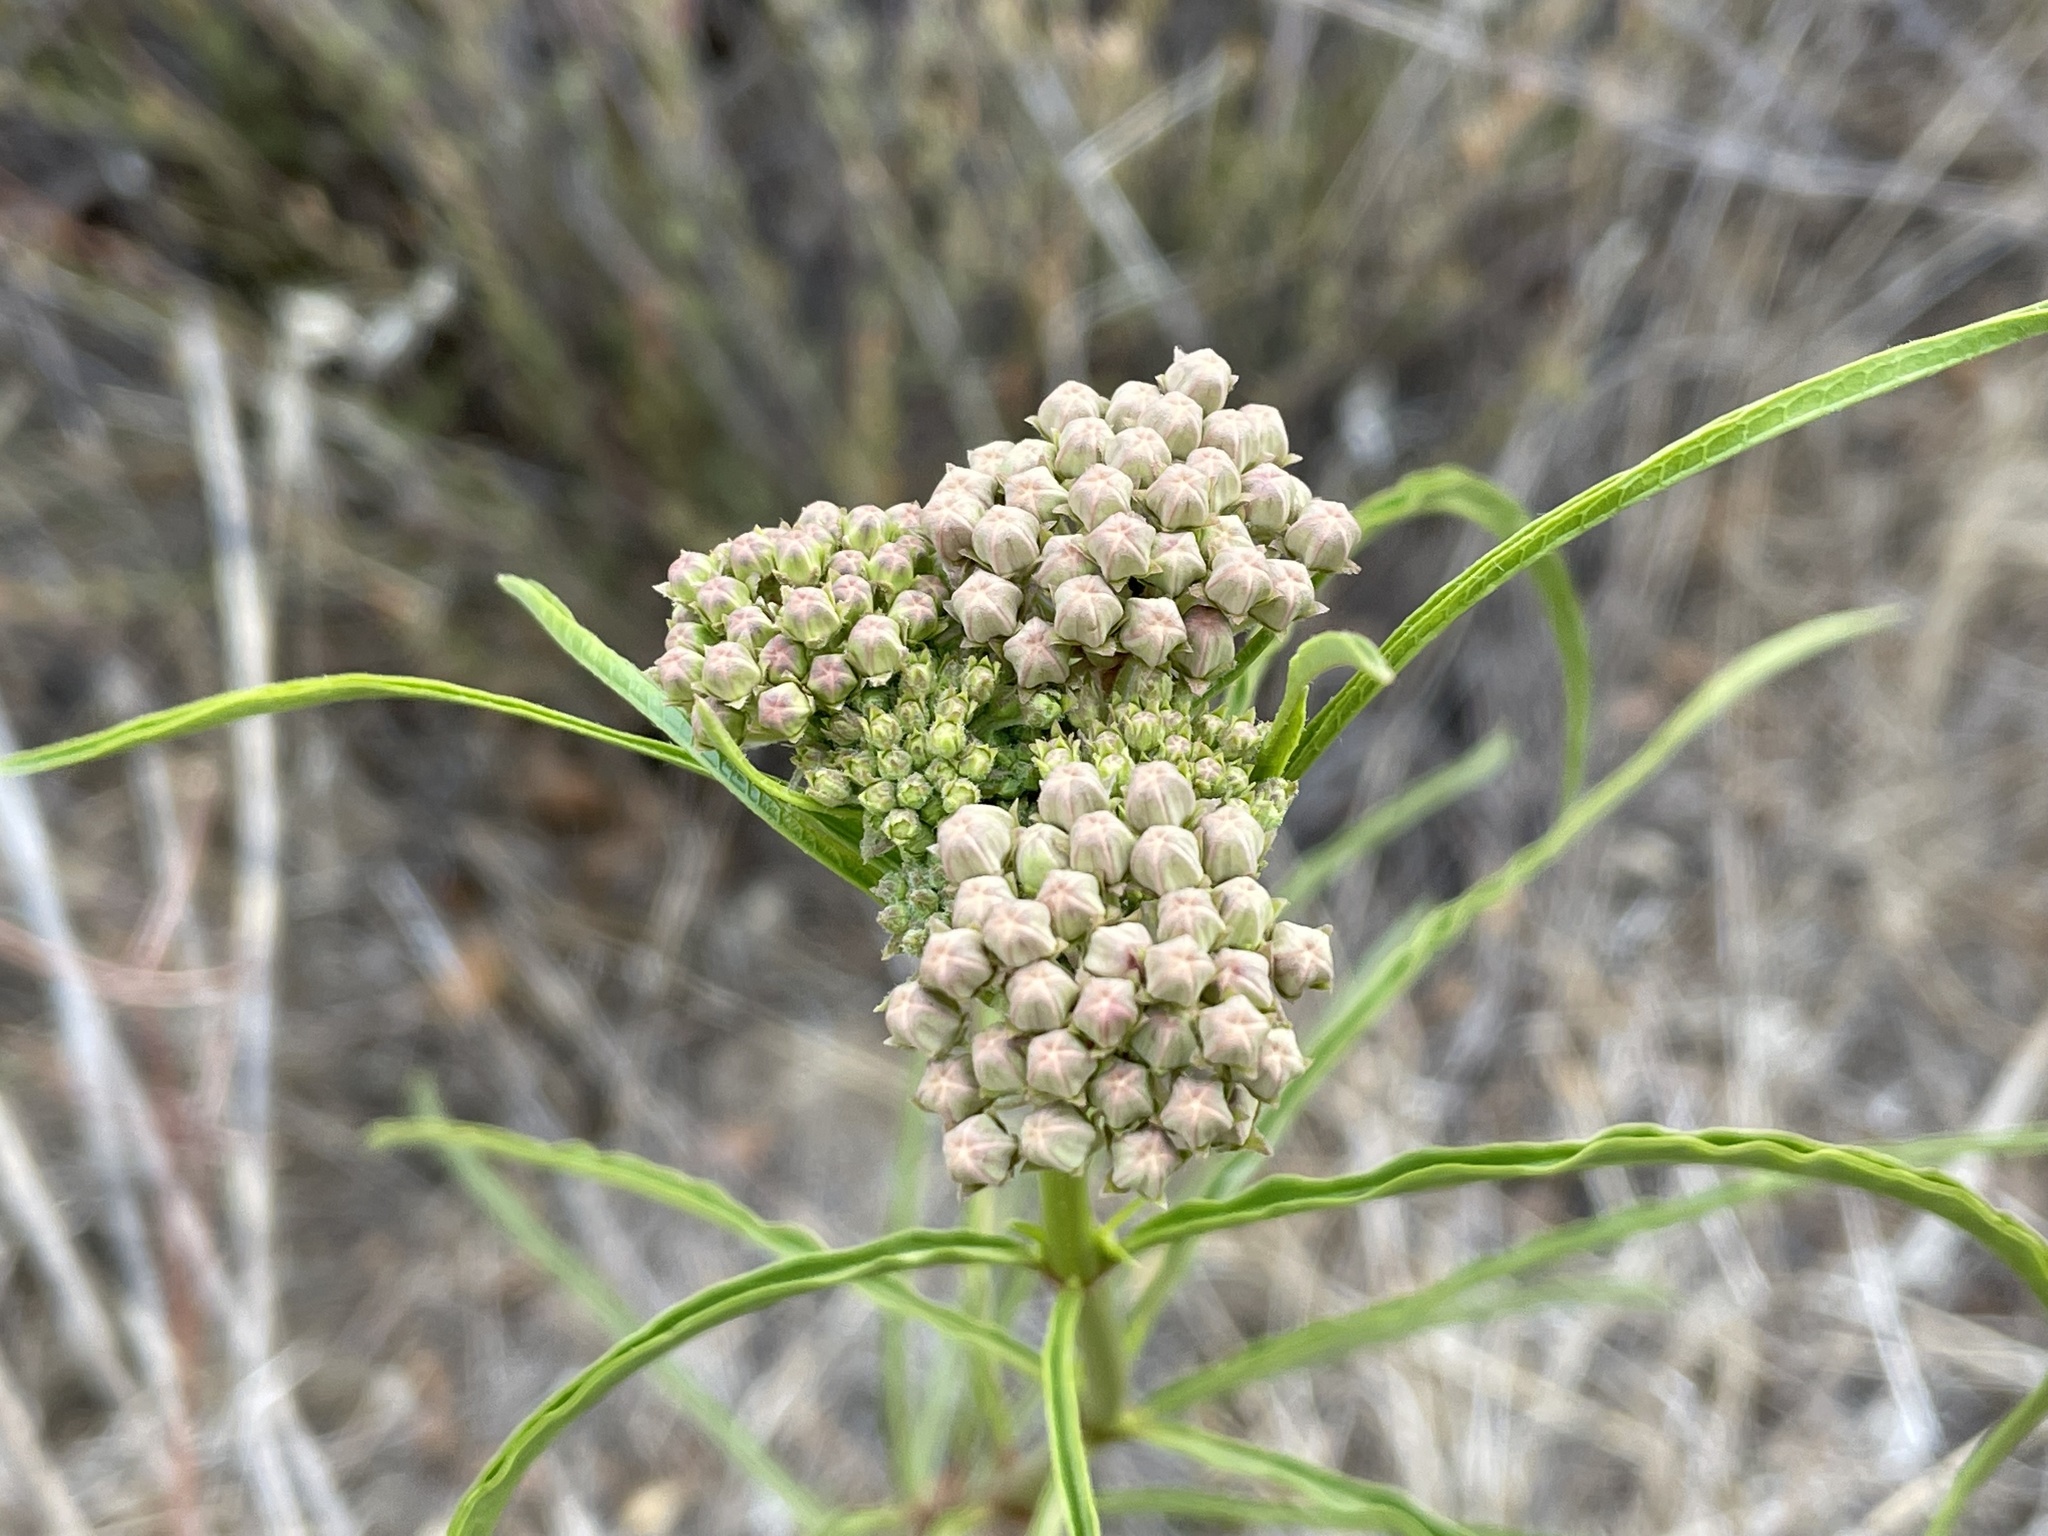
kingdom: Plantae
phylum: Tracheophyta
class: Magnoliopsida
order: Gentianales
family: Apocynaceae
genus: Asclepias
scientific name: Asclepias fascicularis
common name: Mexican milkweed
